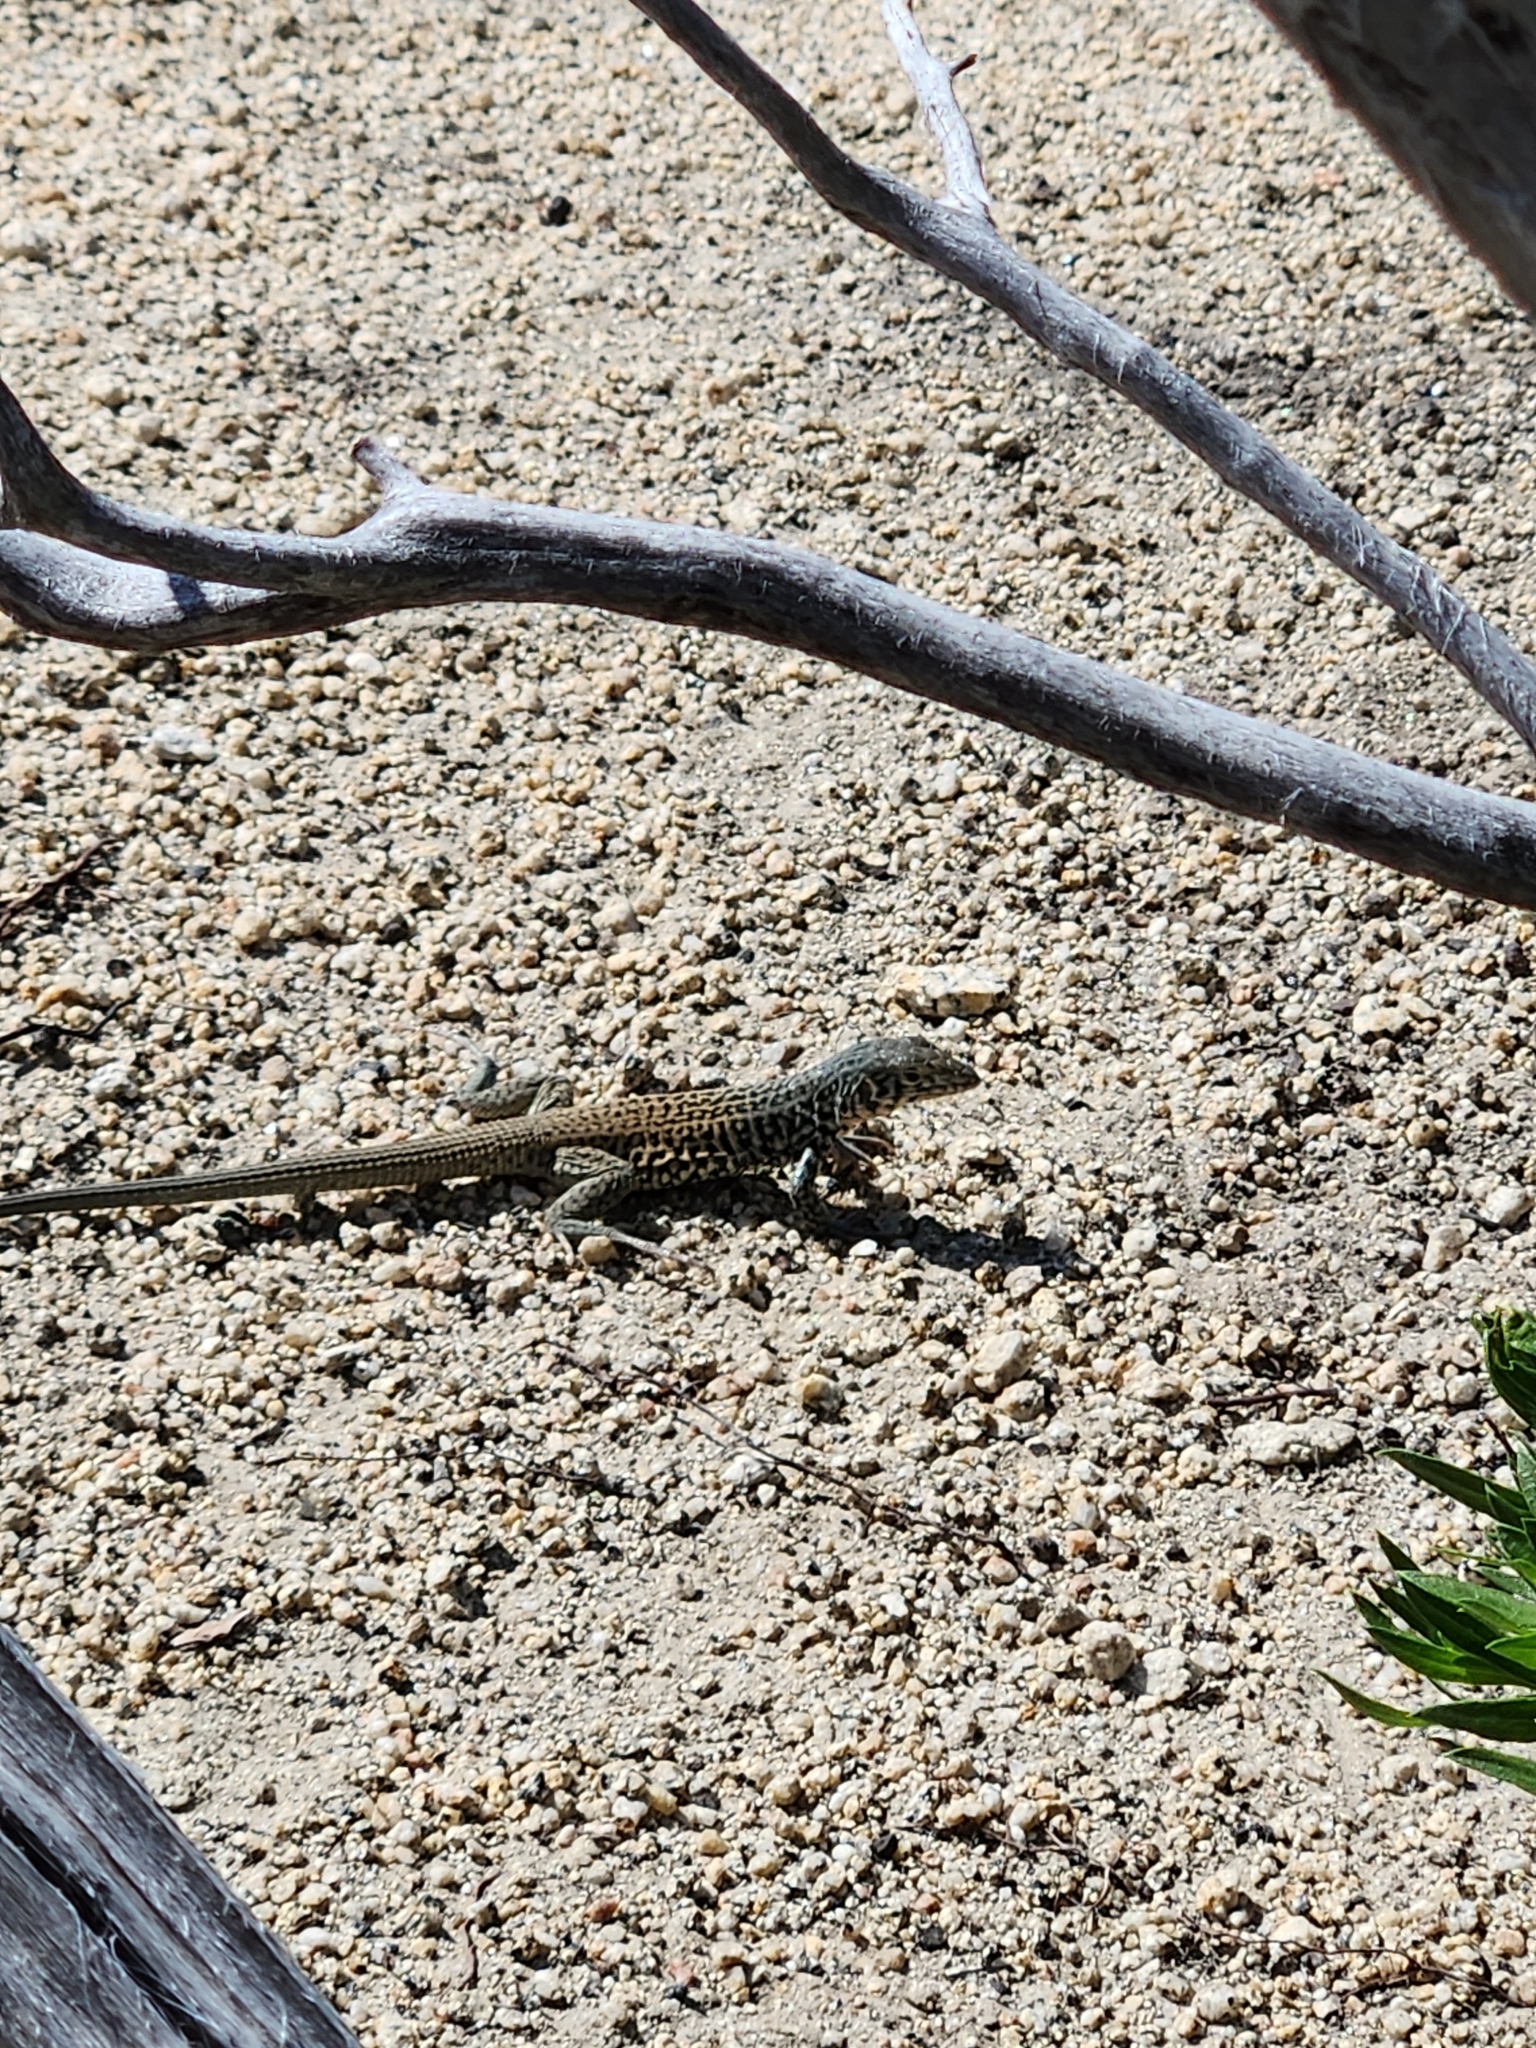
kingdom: Animalia
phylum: Chordata
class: Squamata
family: Teiidae
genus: Aspidoscelis
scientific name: Aspidoscelis tigris
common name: Tiger whiptail
